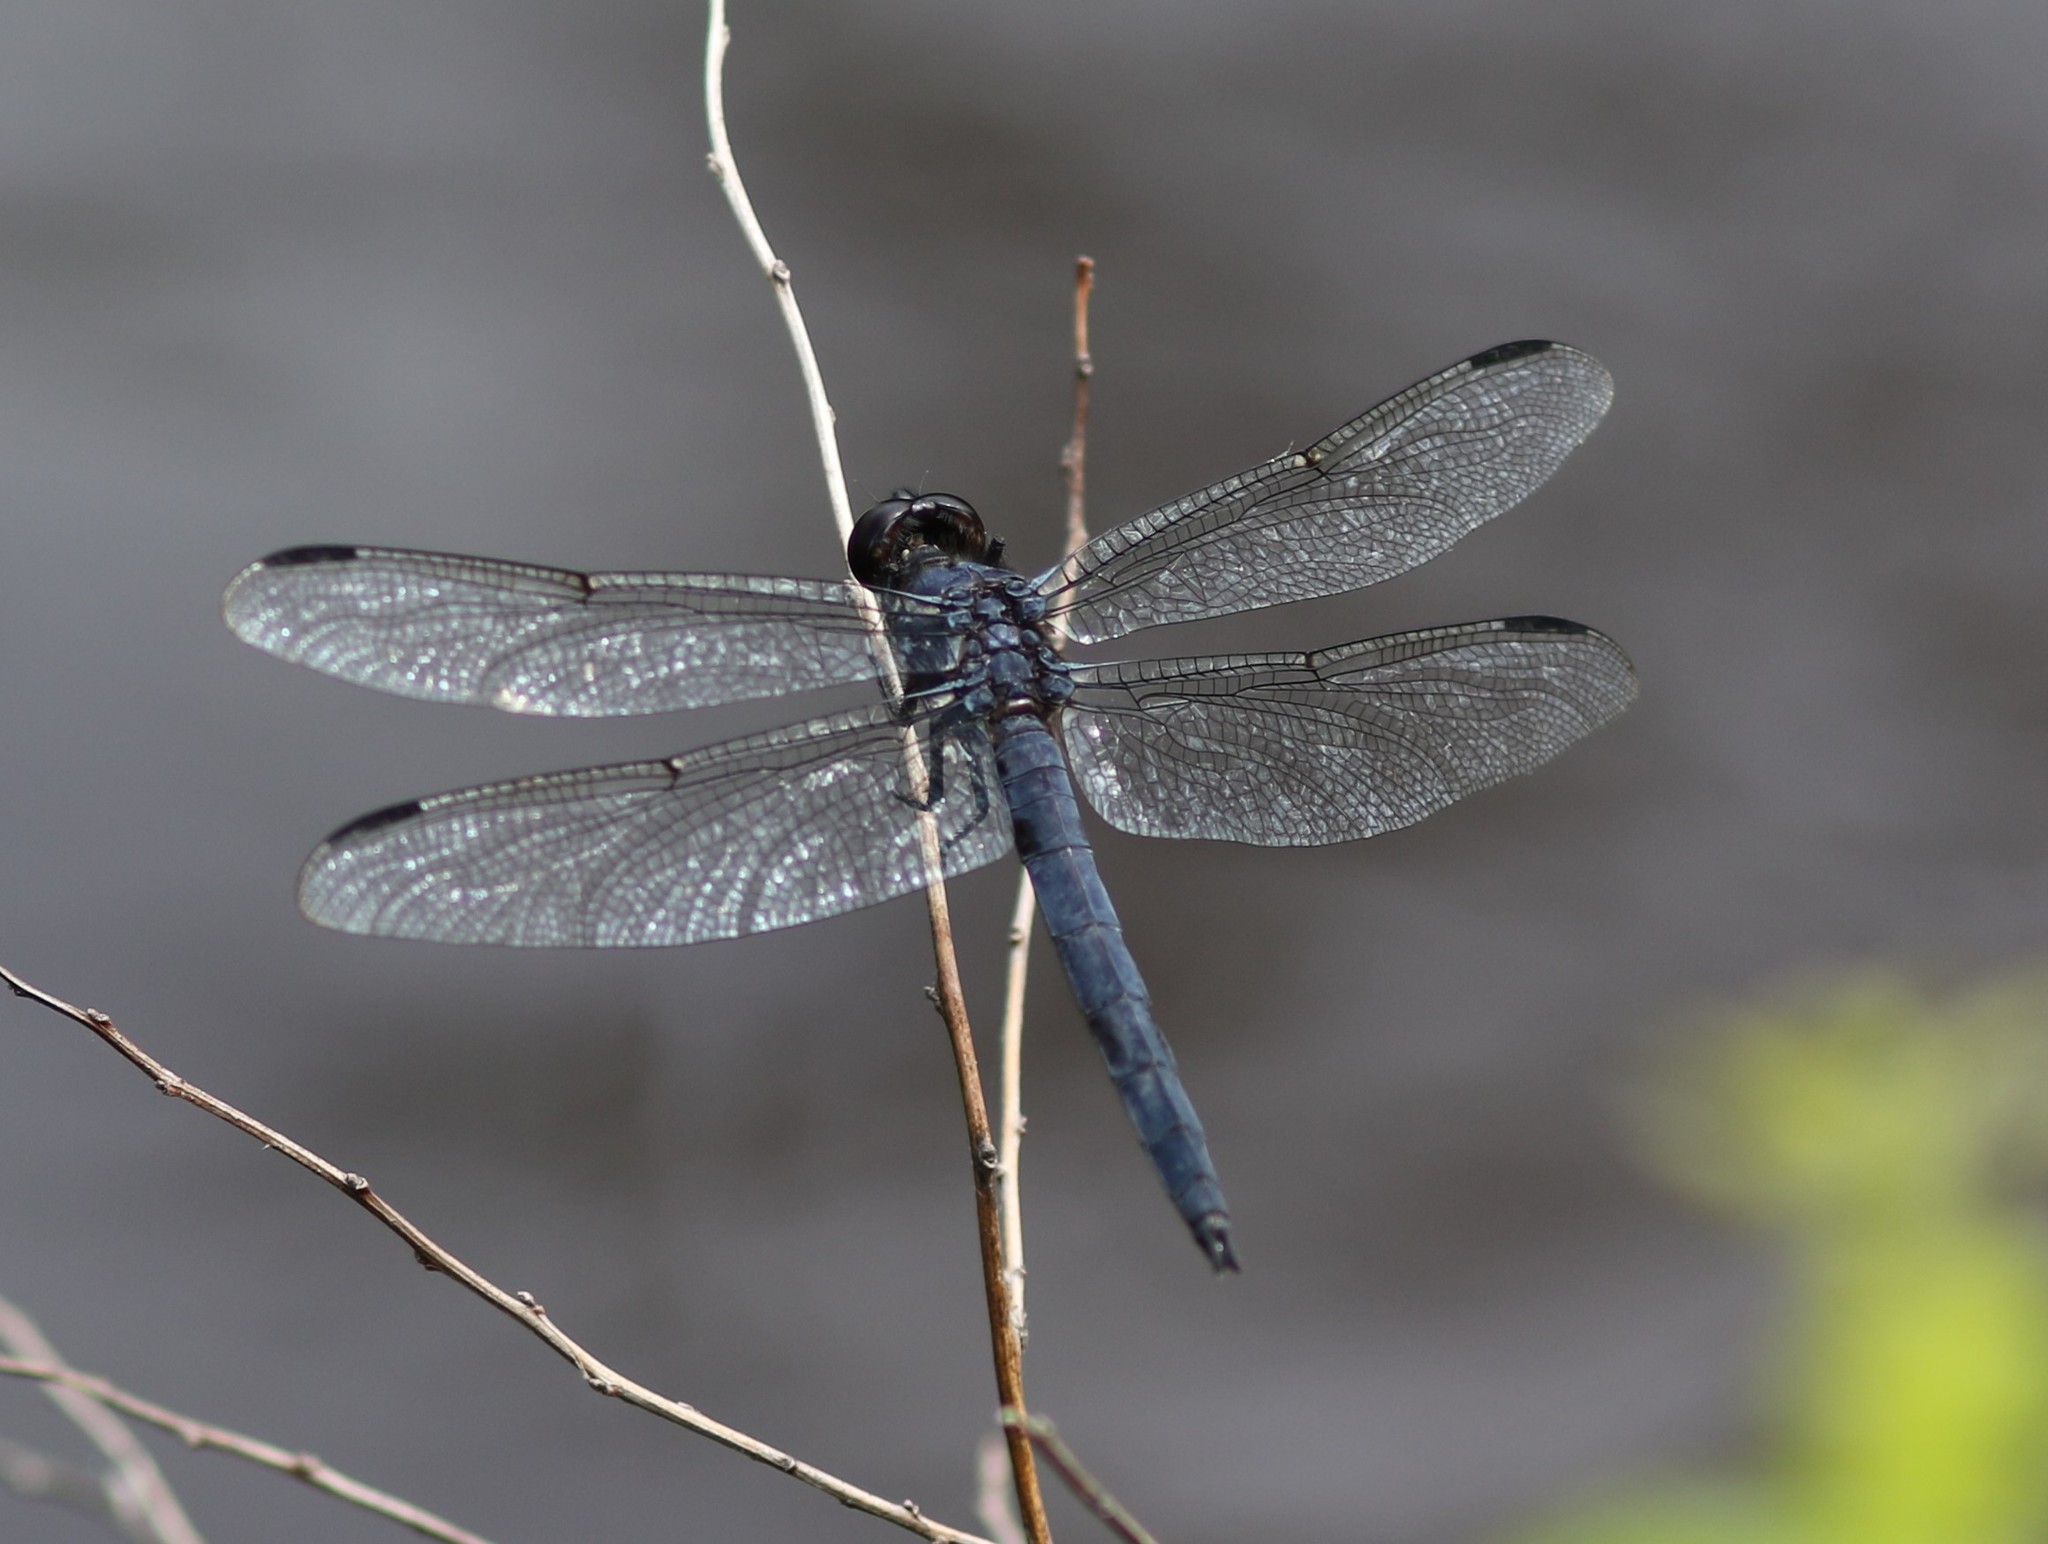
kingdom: Animalia
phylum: Arthropoda
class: Insecta
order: Odonata
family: Libellulidae
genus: Libellula
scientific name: Libellula incesta
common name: Slaty skimmer
